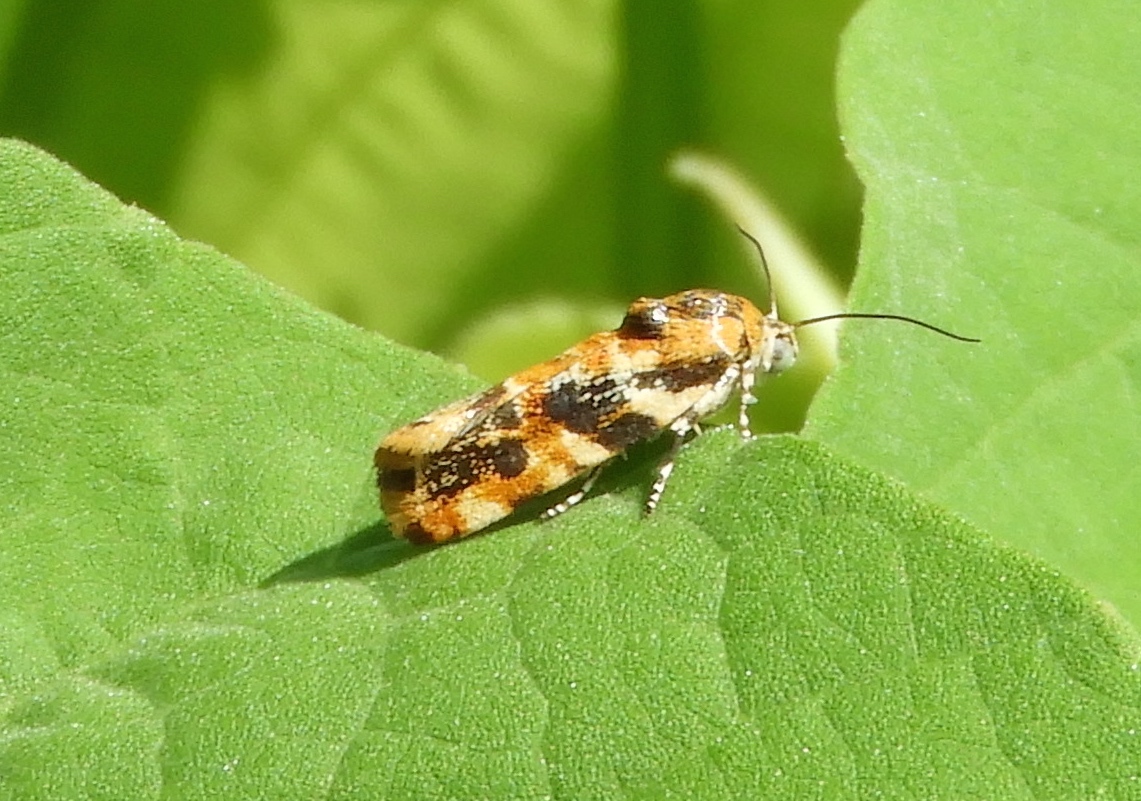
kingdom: Animalia
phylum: Arthropoda
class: Insecta
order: Lepidoptera
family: Noctuidae
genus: Spragueia
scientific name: Spragueia jaguaralis
